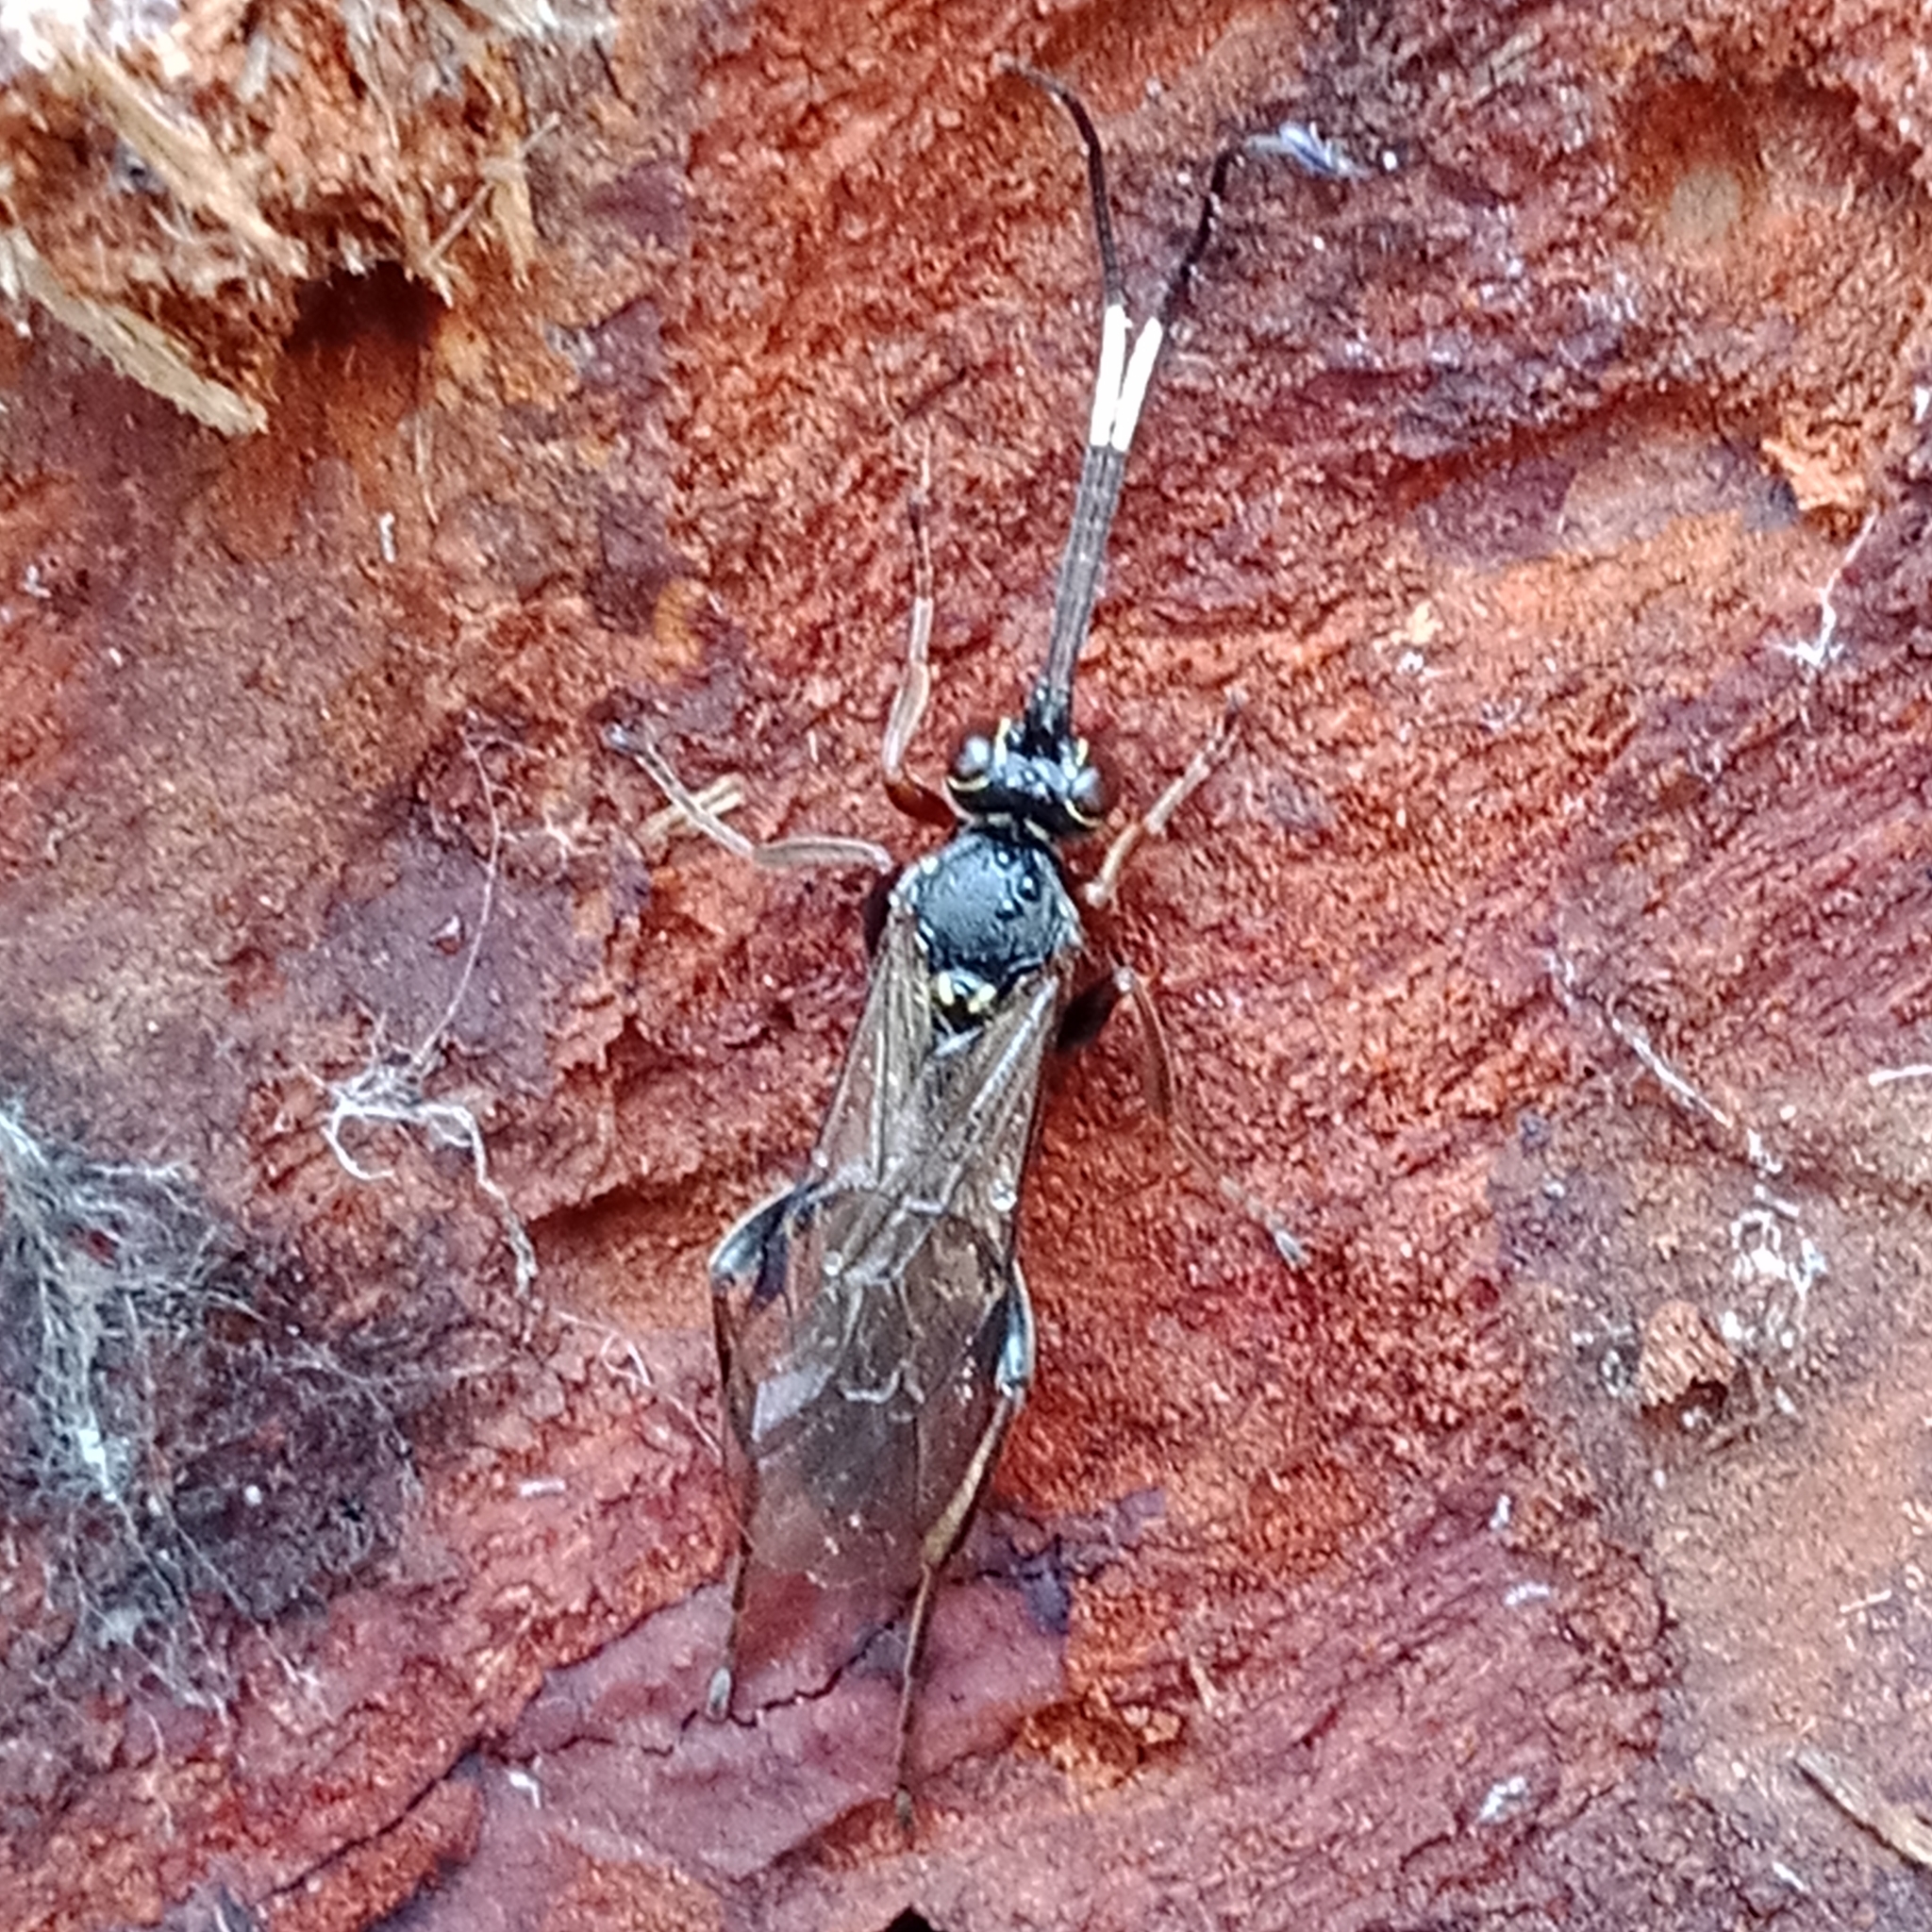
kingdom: Animalia
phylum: Arthropoda
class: Insecta
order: Hymenoptera
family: Ichneumonidae
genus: Aoplus
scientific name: Aoplus defraudator
